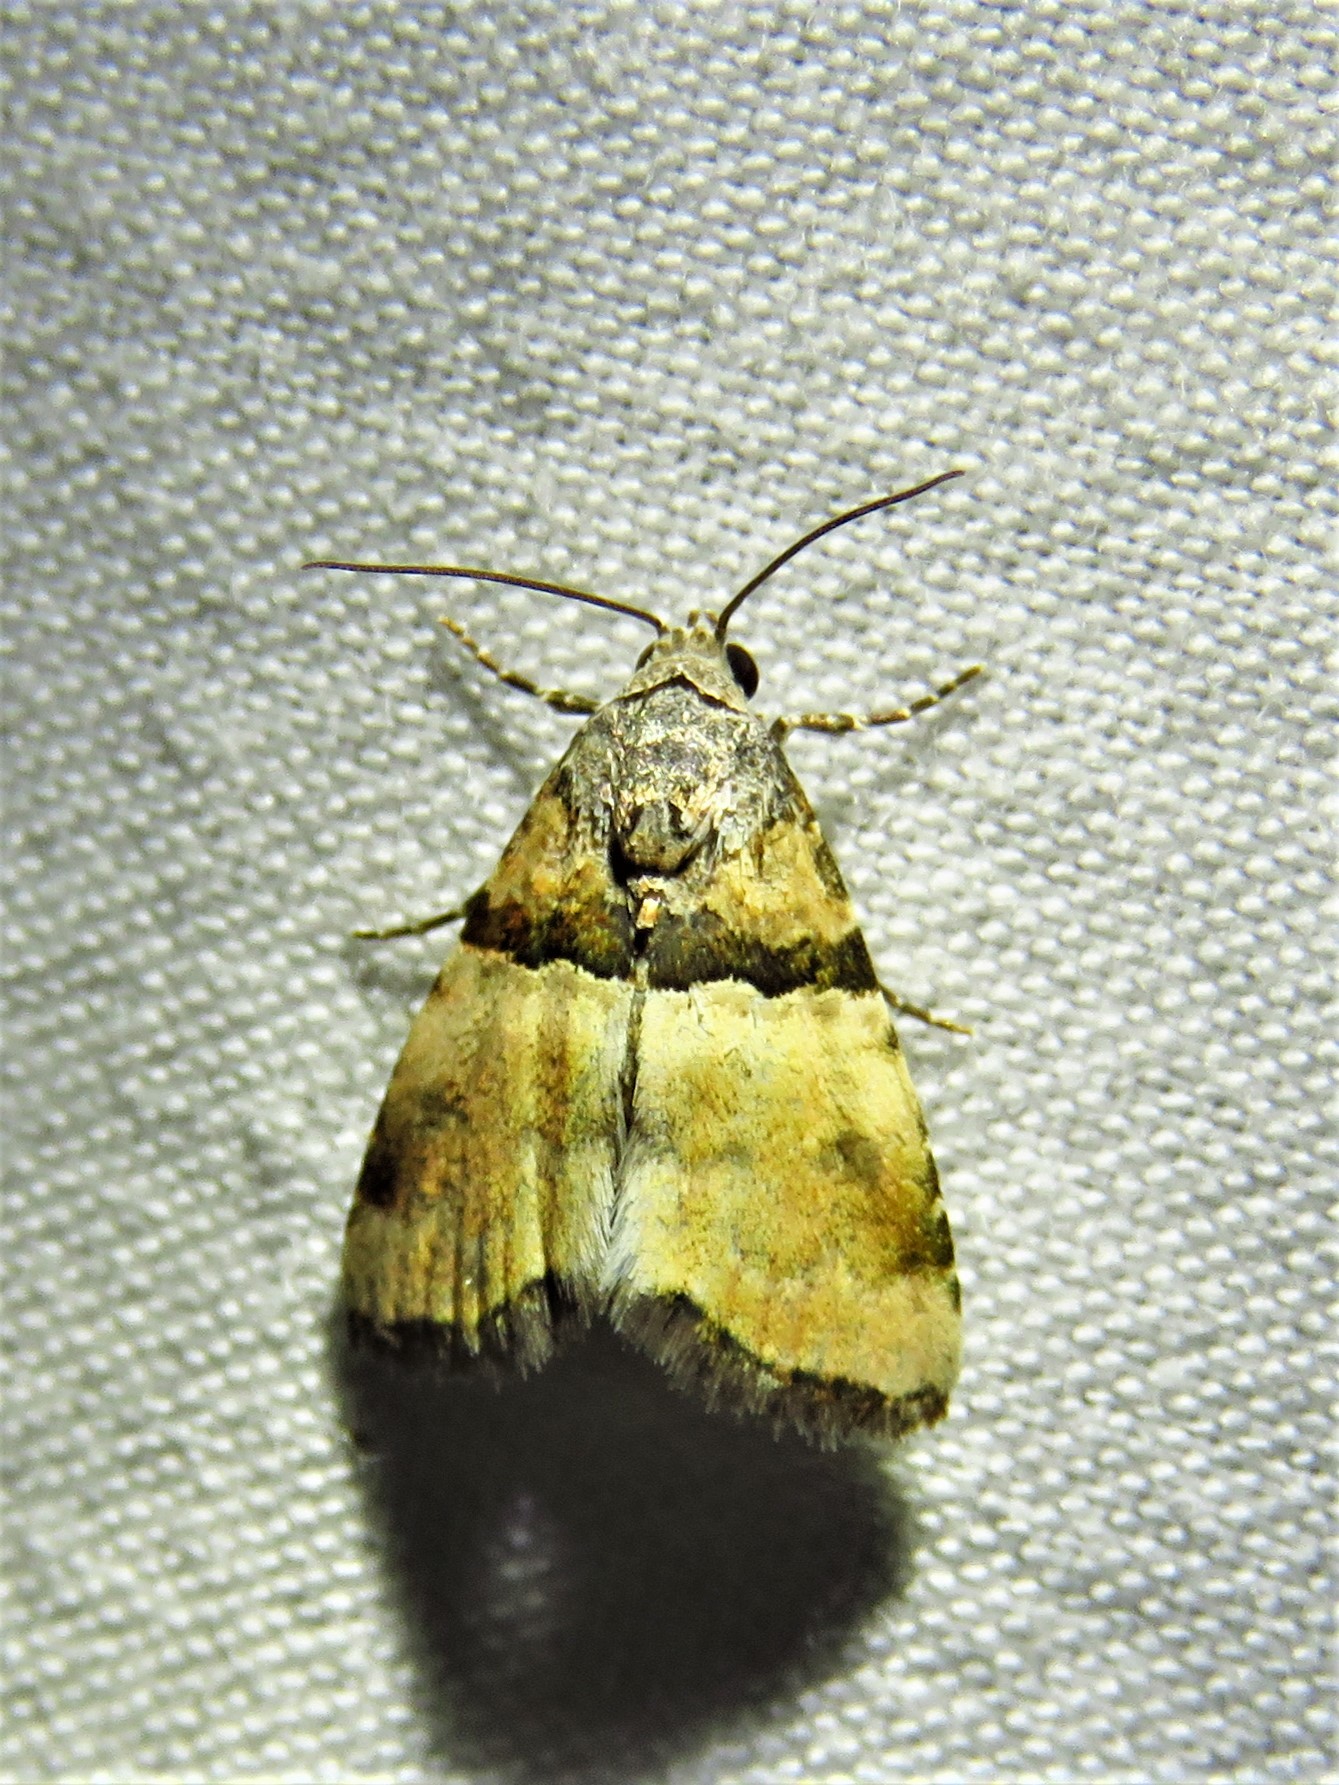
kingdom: Animalia
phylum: Arthropoda
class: Insecta
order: Lepidoptera
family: Noctuidae
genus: Cobubatha
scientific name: Cobubatha dividua
